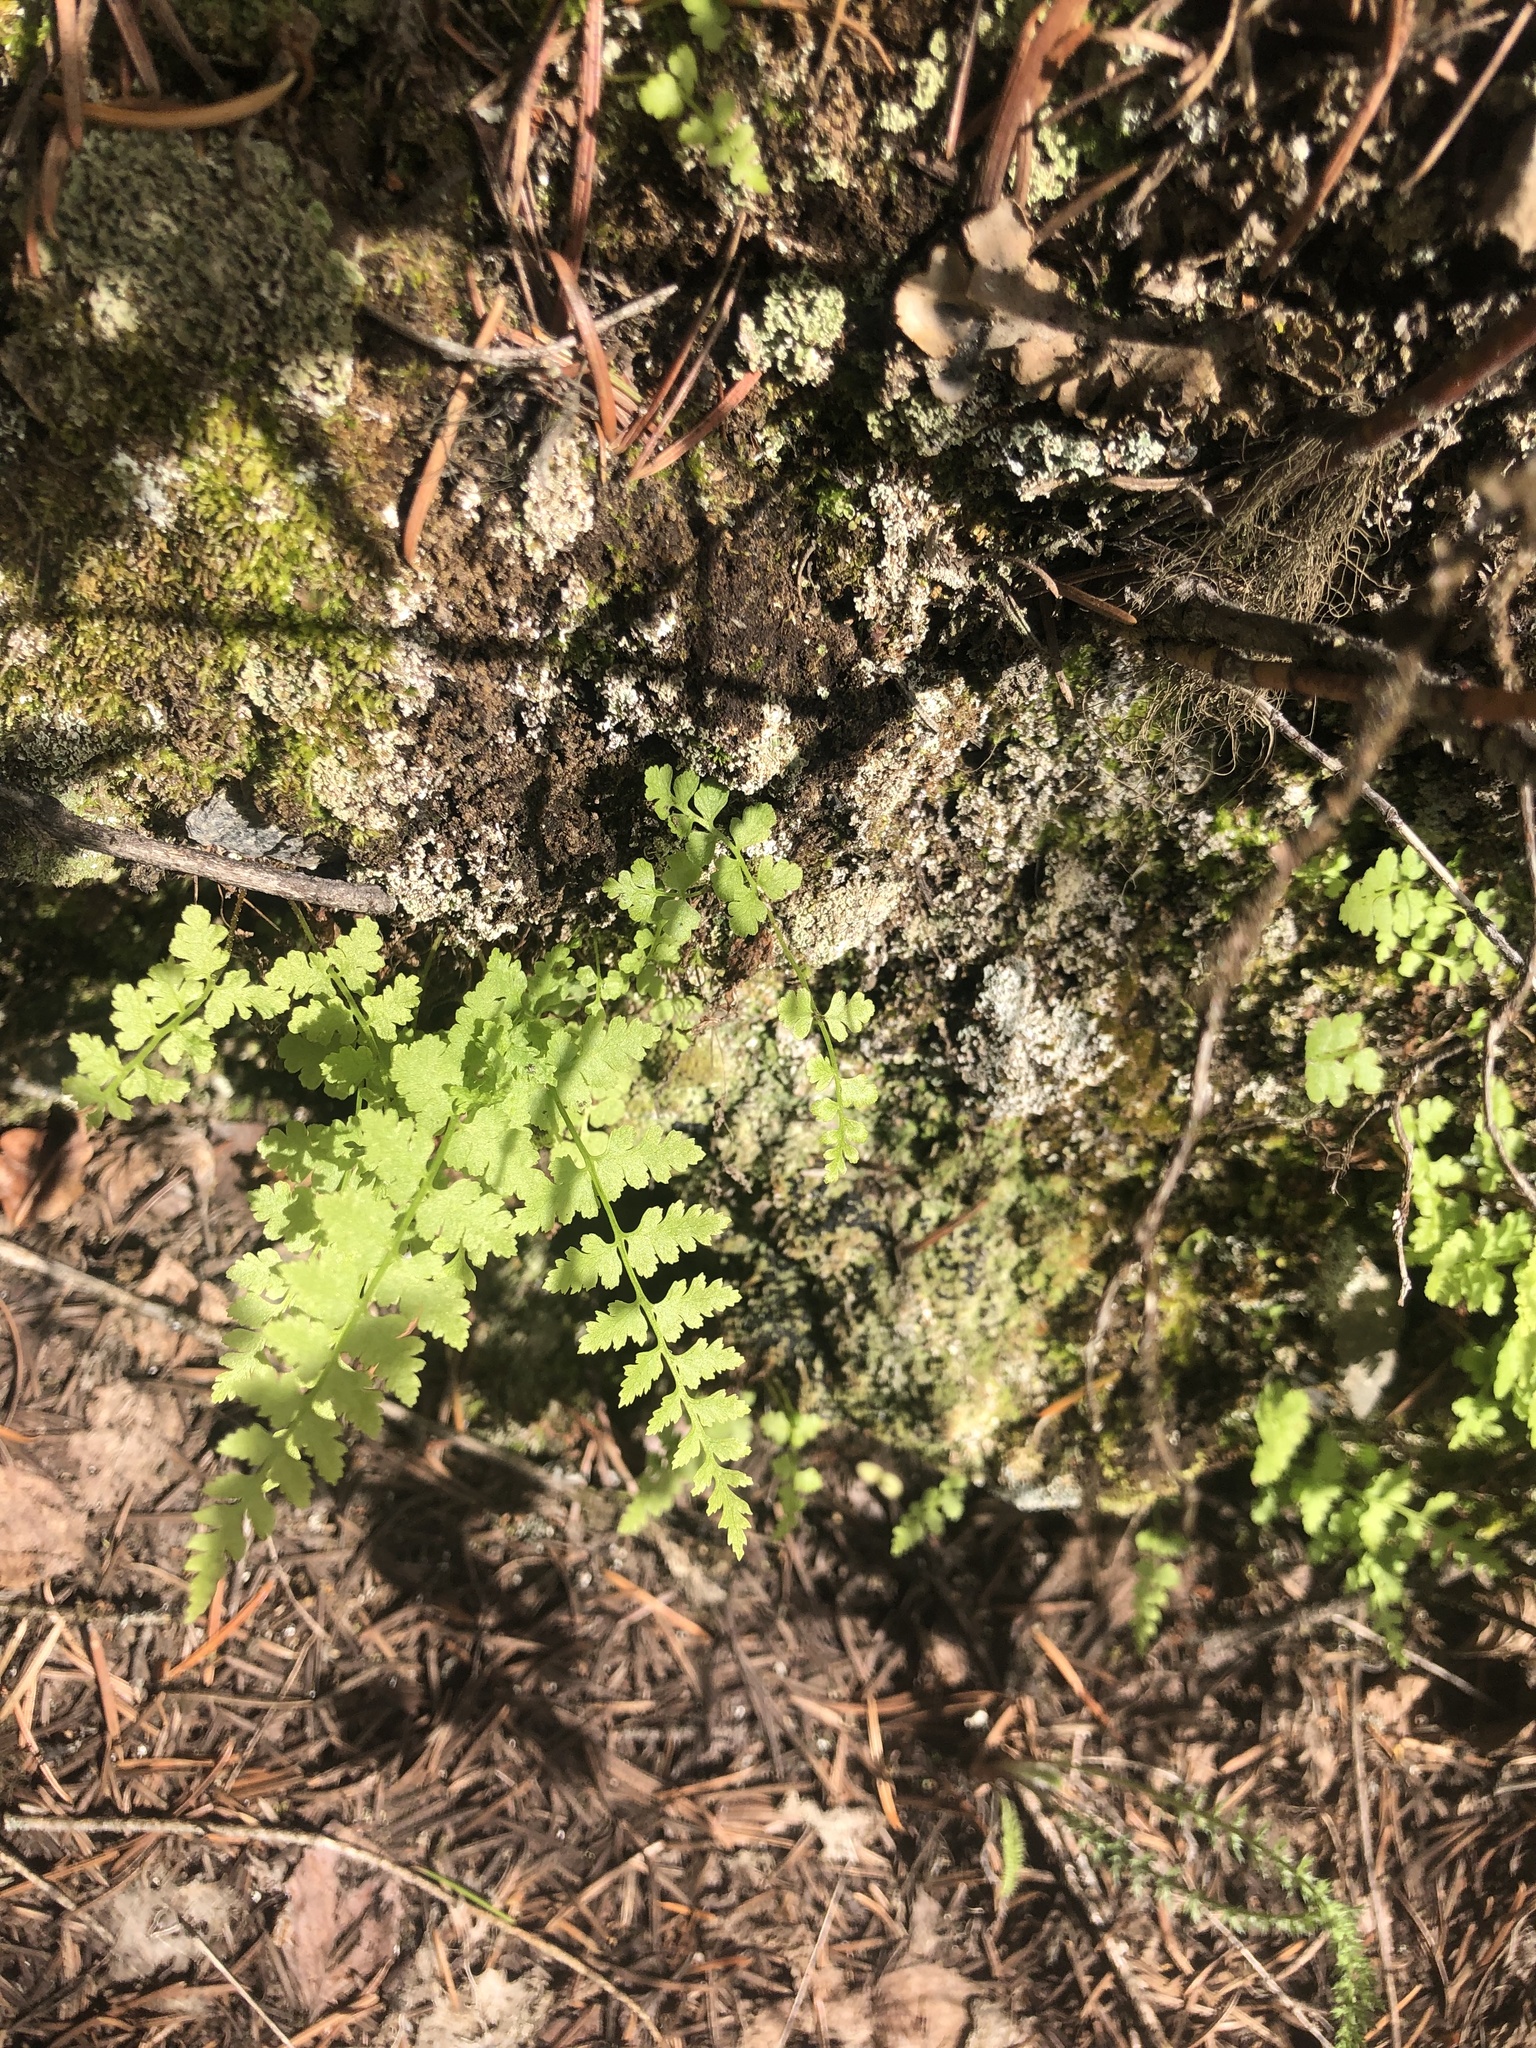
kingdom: Plantae
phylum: Tracheophyta
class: Polypodiopsida
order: Polypodiales
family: Cystopteridaceae
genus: Cystopteris
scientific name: Cystopteris fragilis
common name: Brittle bladder fern
